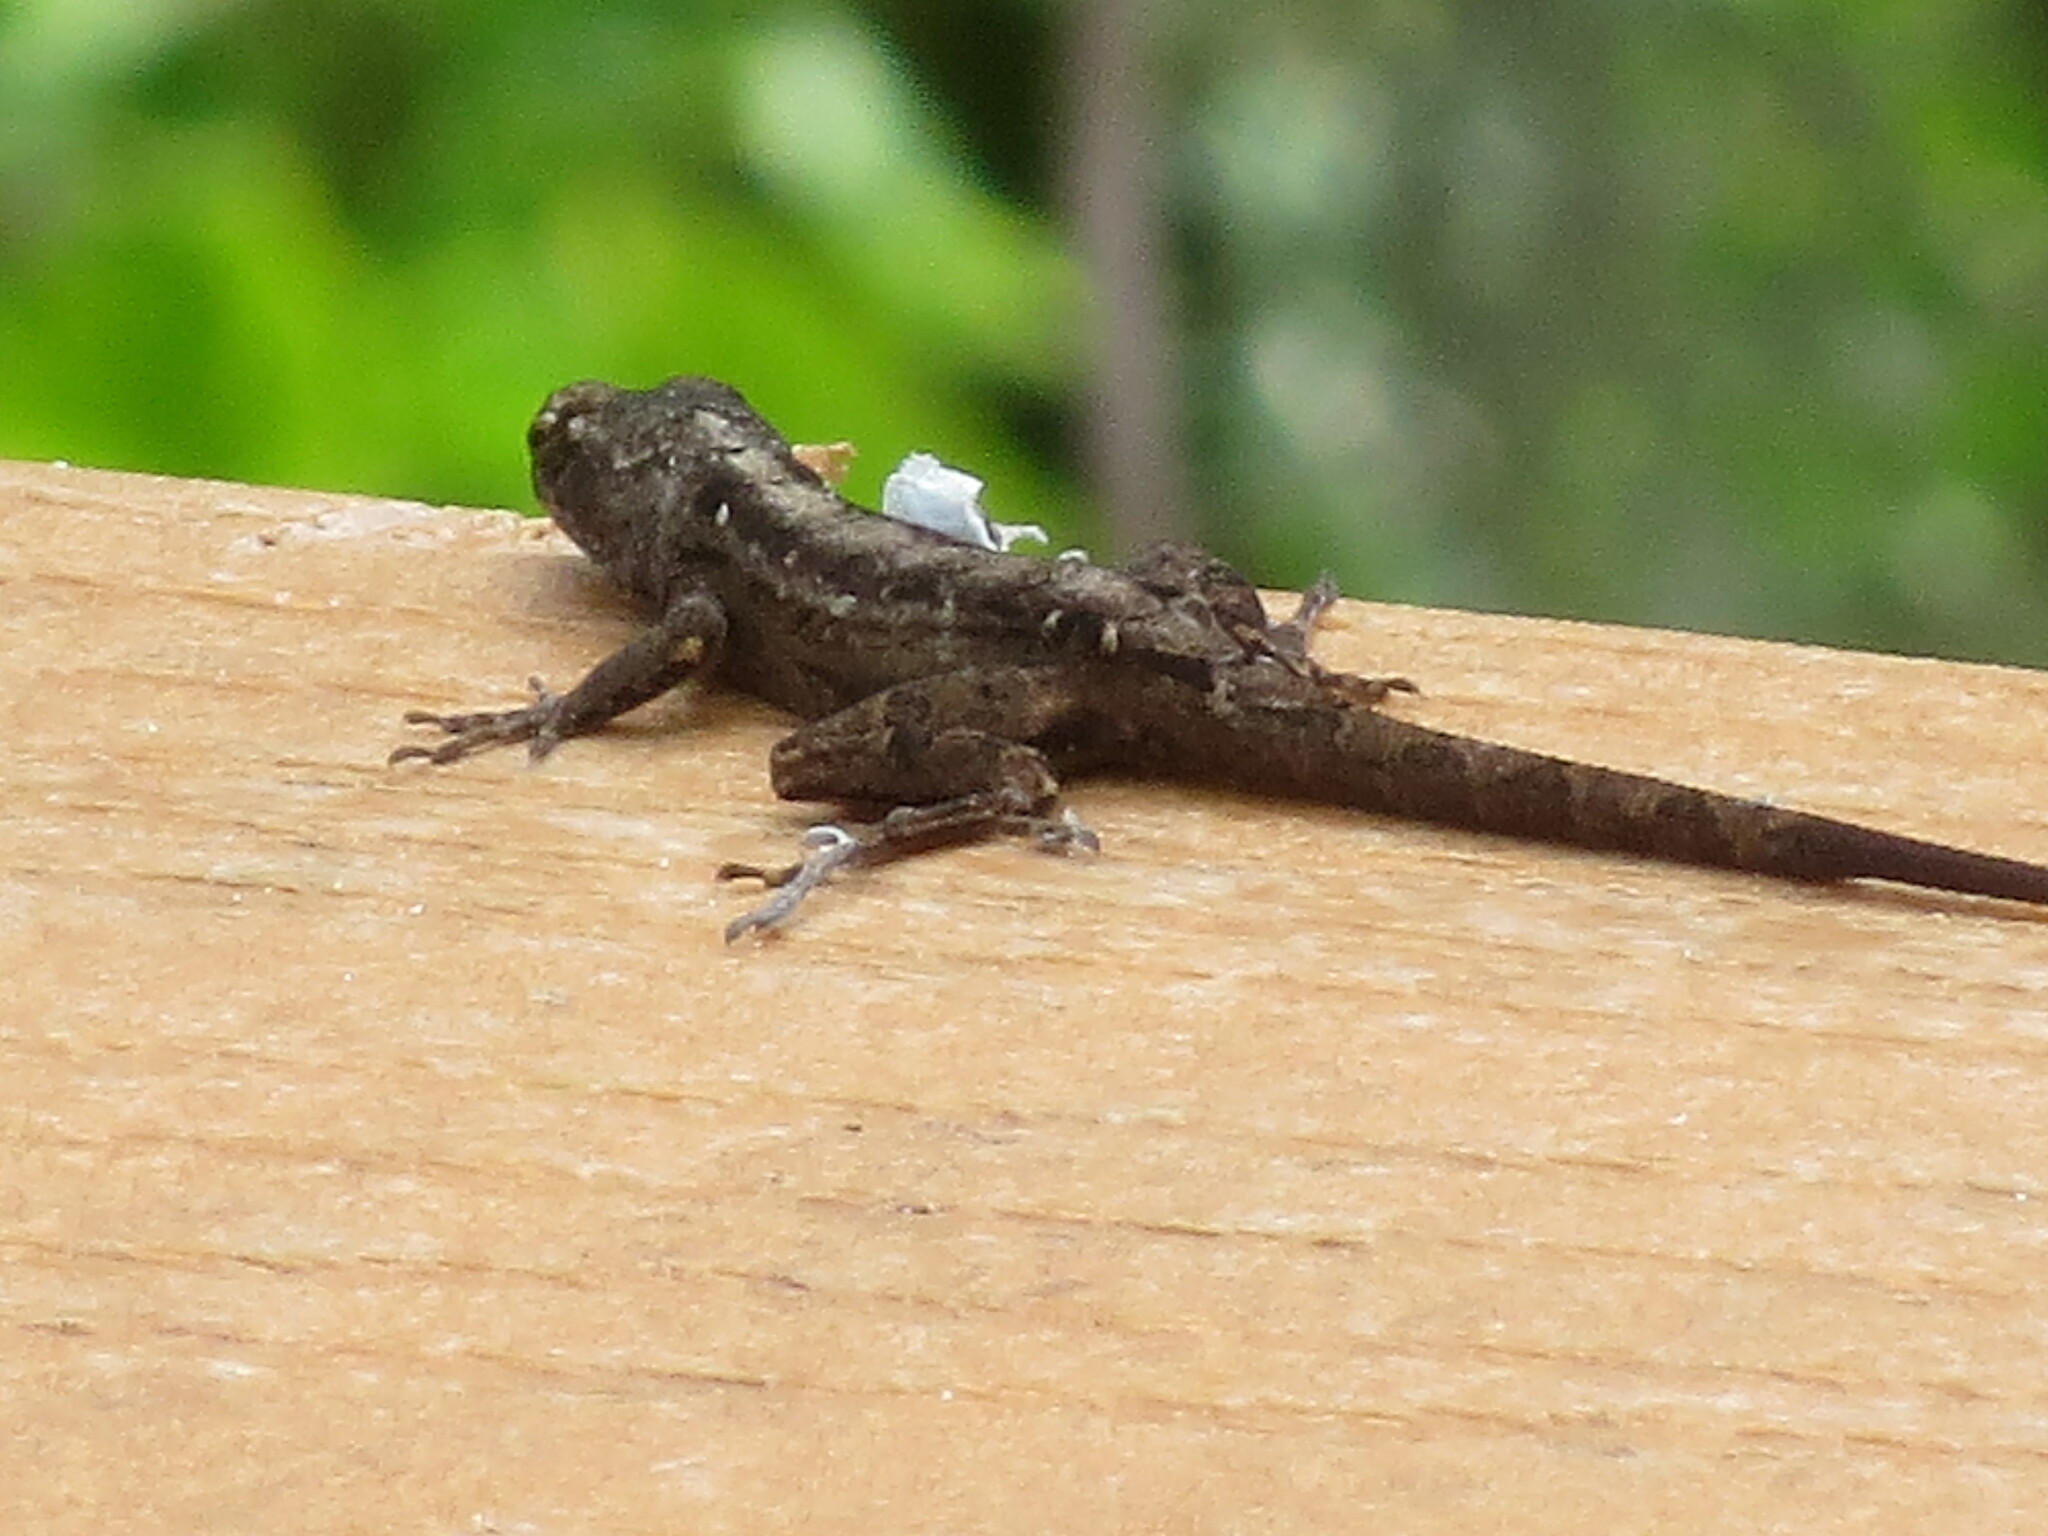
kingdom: Animalia
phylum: Chordata
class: Squamata
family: Dactyloidae
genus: Anolis
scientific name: Anolis sagrei
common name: Brown anole
